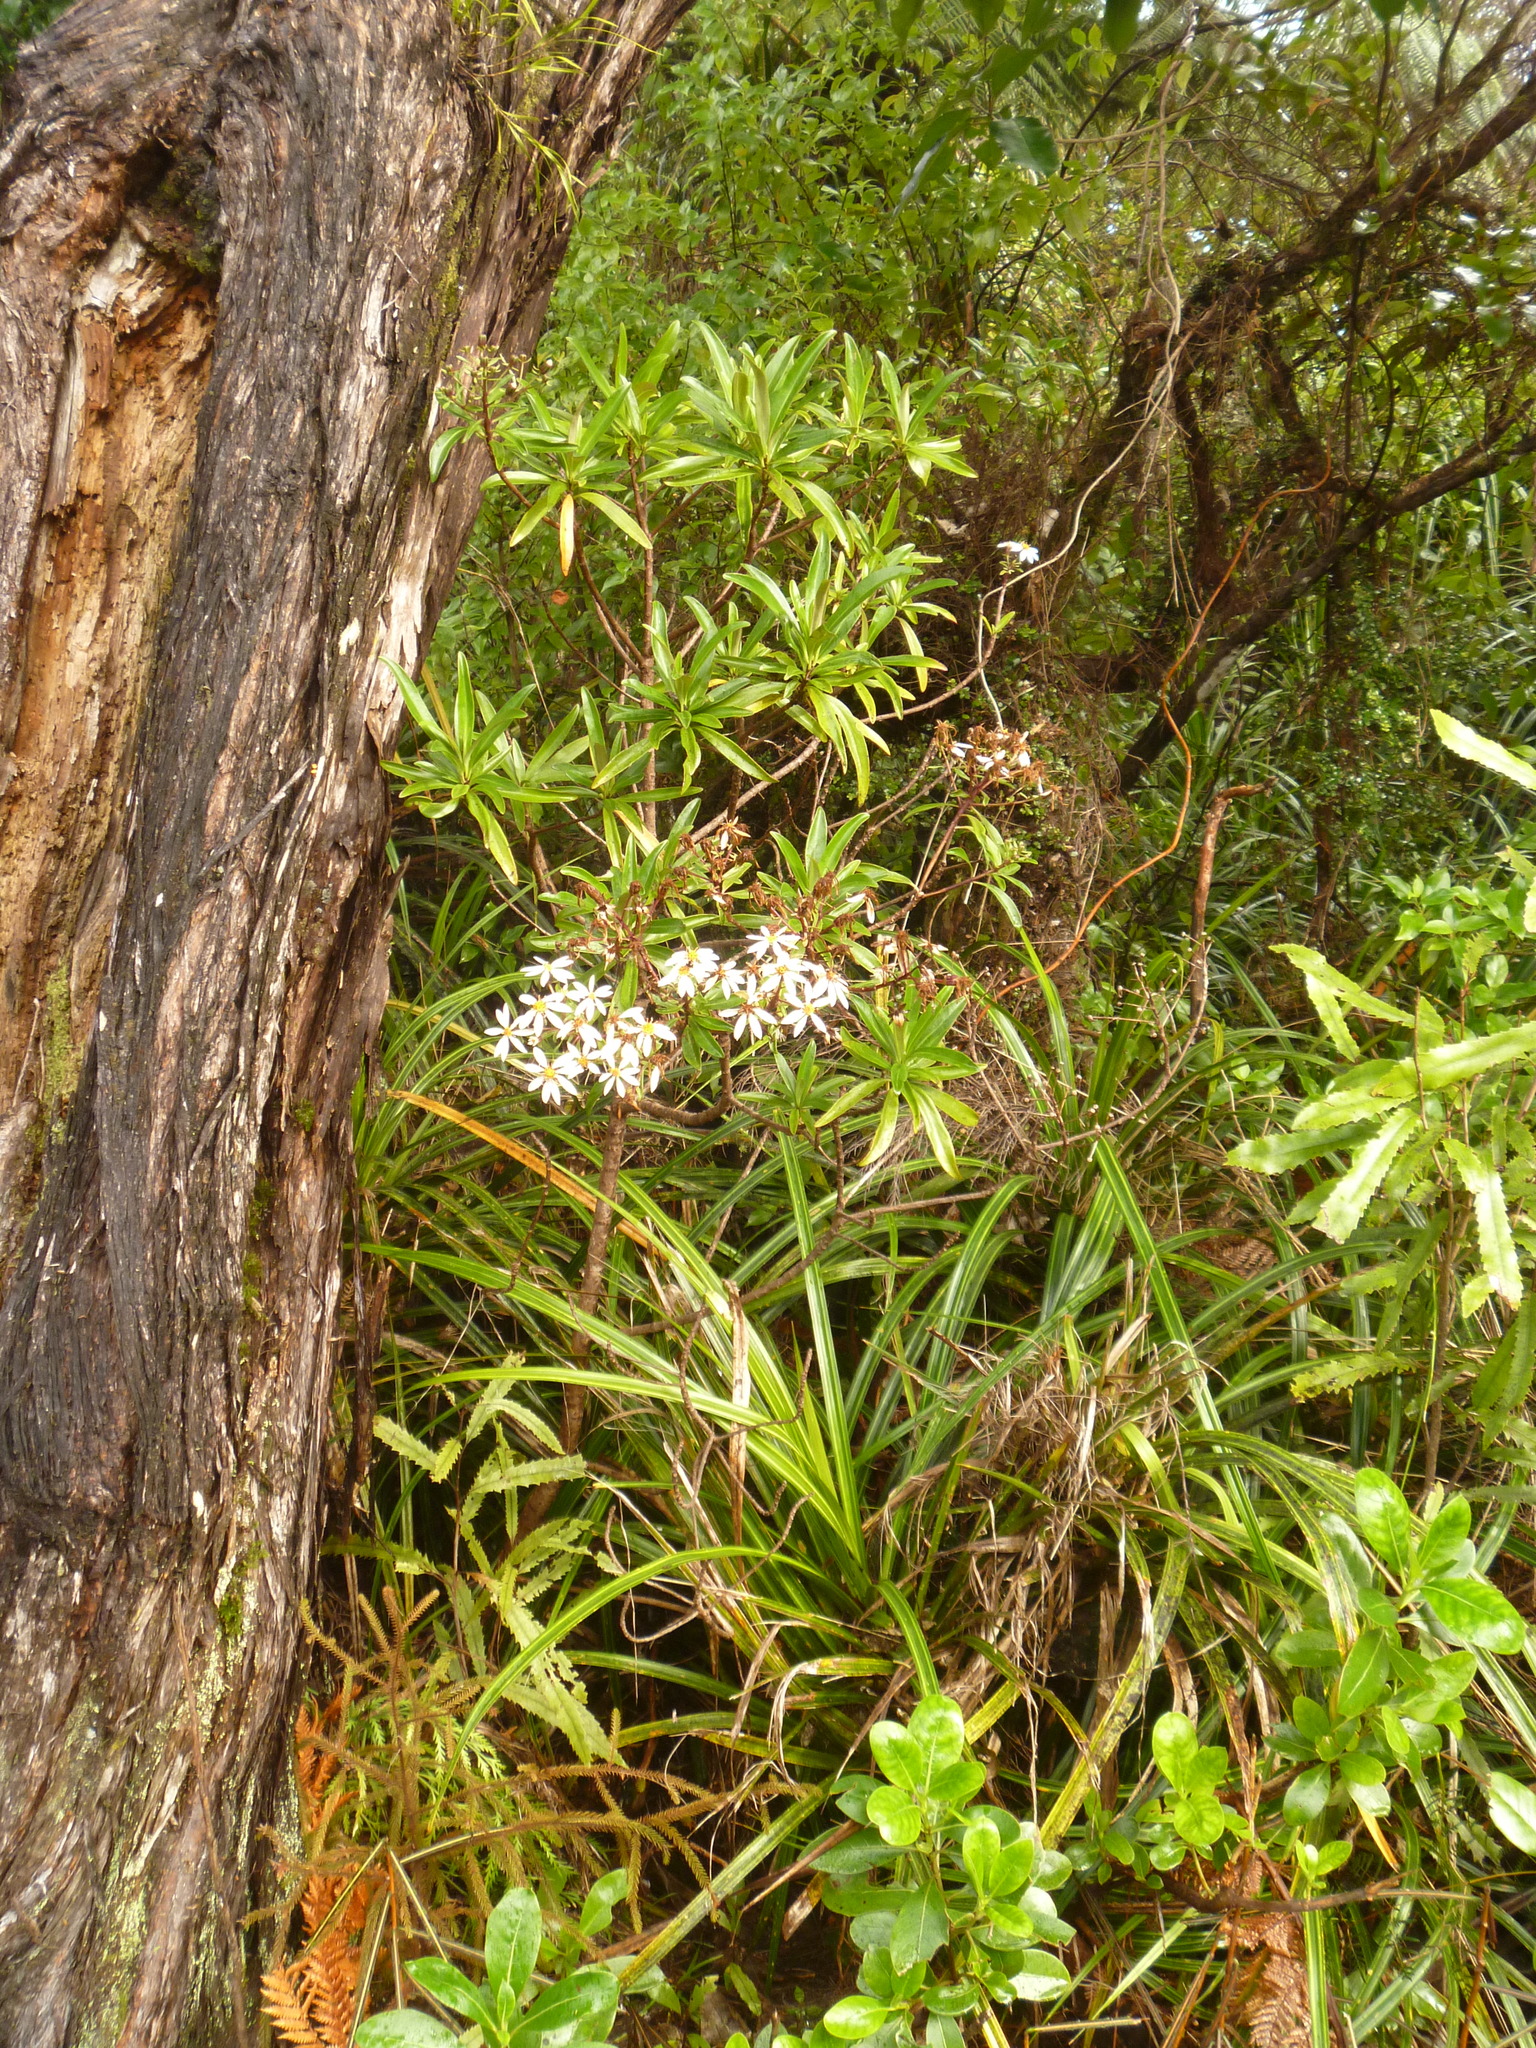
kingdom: Plantae
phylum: Tracheophyta
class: Magnoliopsida
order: Asterales
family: Asteraceae
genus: Brachyglottis
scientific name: Brachyglottis kirkii
